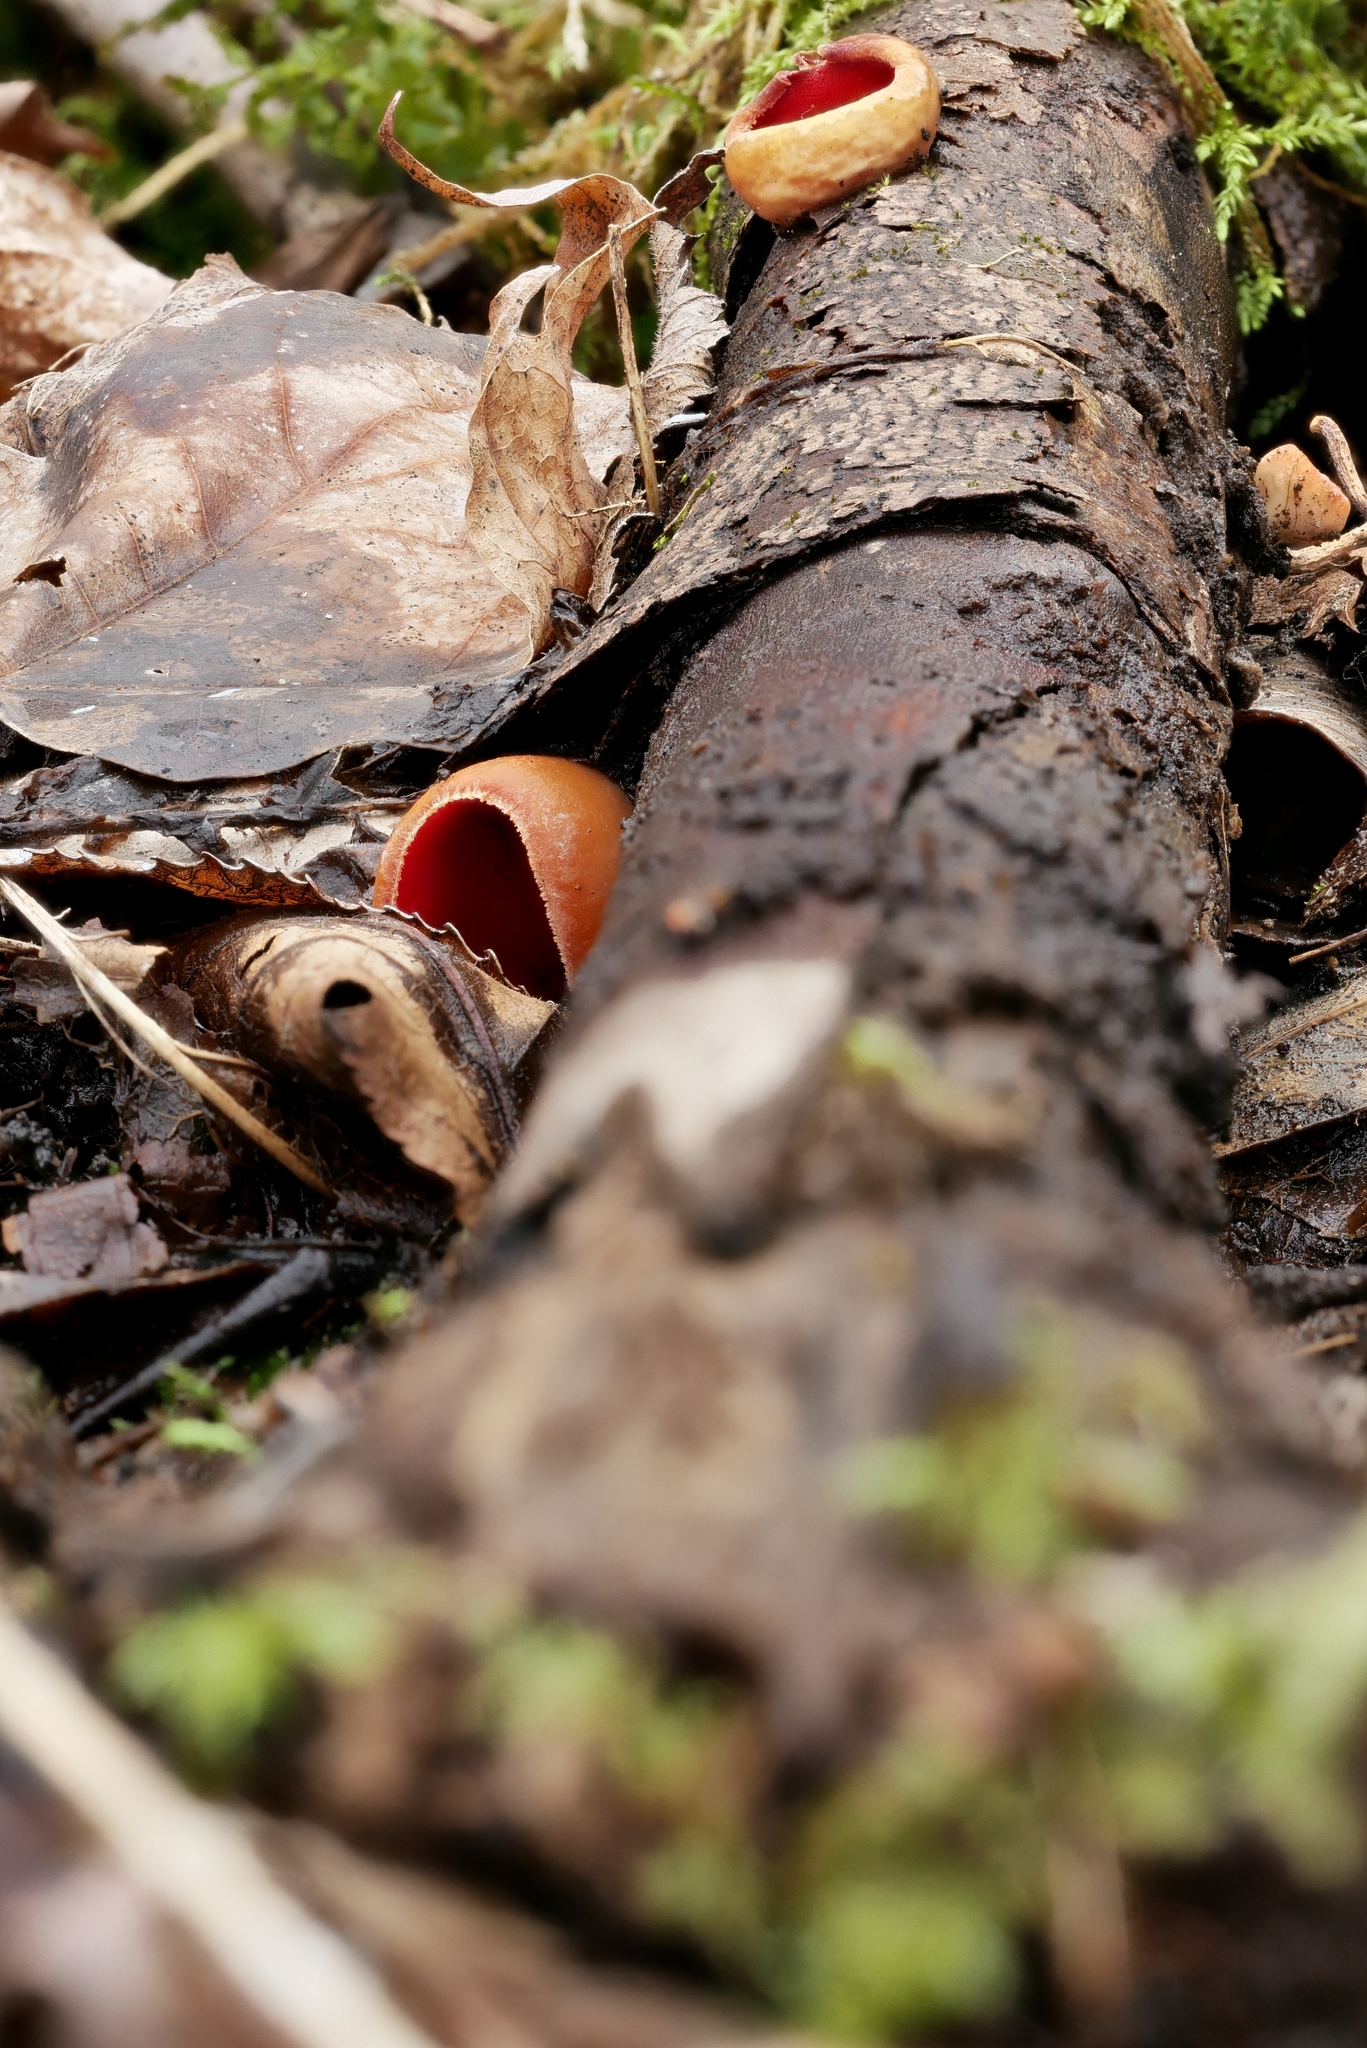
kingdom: Fungi
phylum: Ascomycota
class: Pezizomycetes
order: Pezizales
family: Sarcoscyphaceae
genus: Sarcoscypha
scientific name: Sarcoscypha austriaca
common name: Scarlet elfcup
